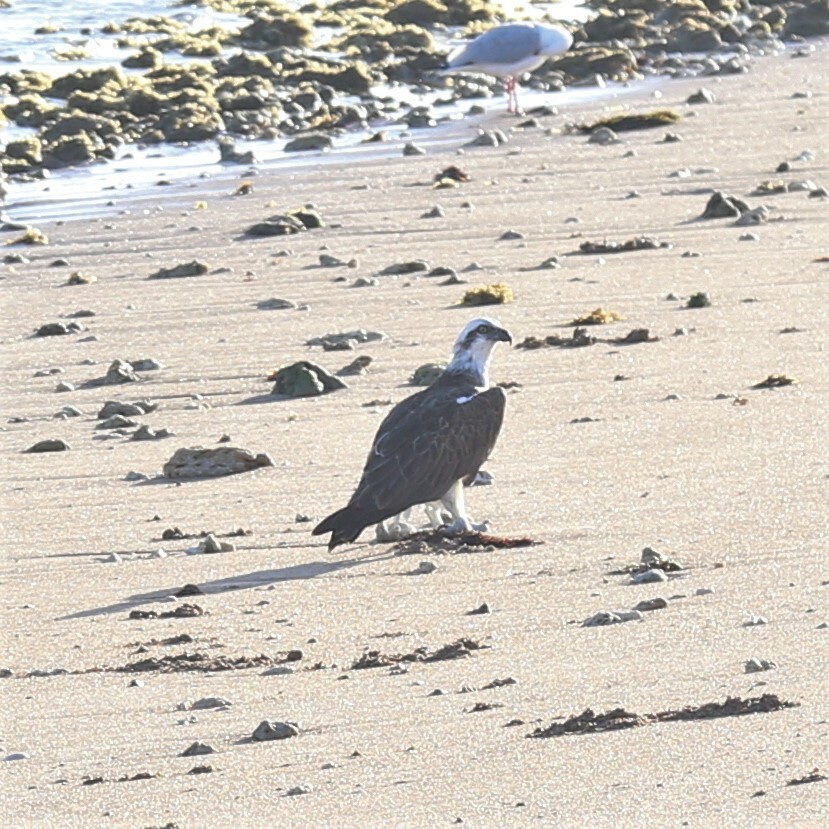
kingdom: Animalia
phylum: Chordata
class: Aves
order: Accipitriformes
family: Pandionidae
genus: Pandion
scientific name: Pandion cristatus
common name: Eastern osprey
